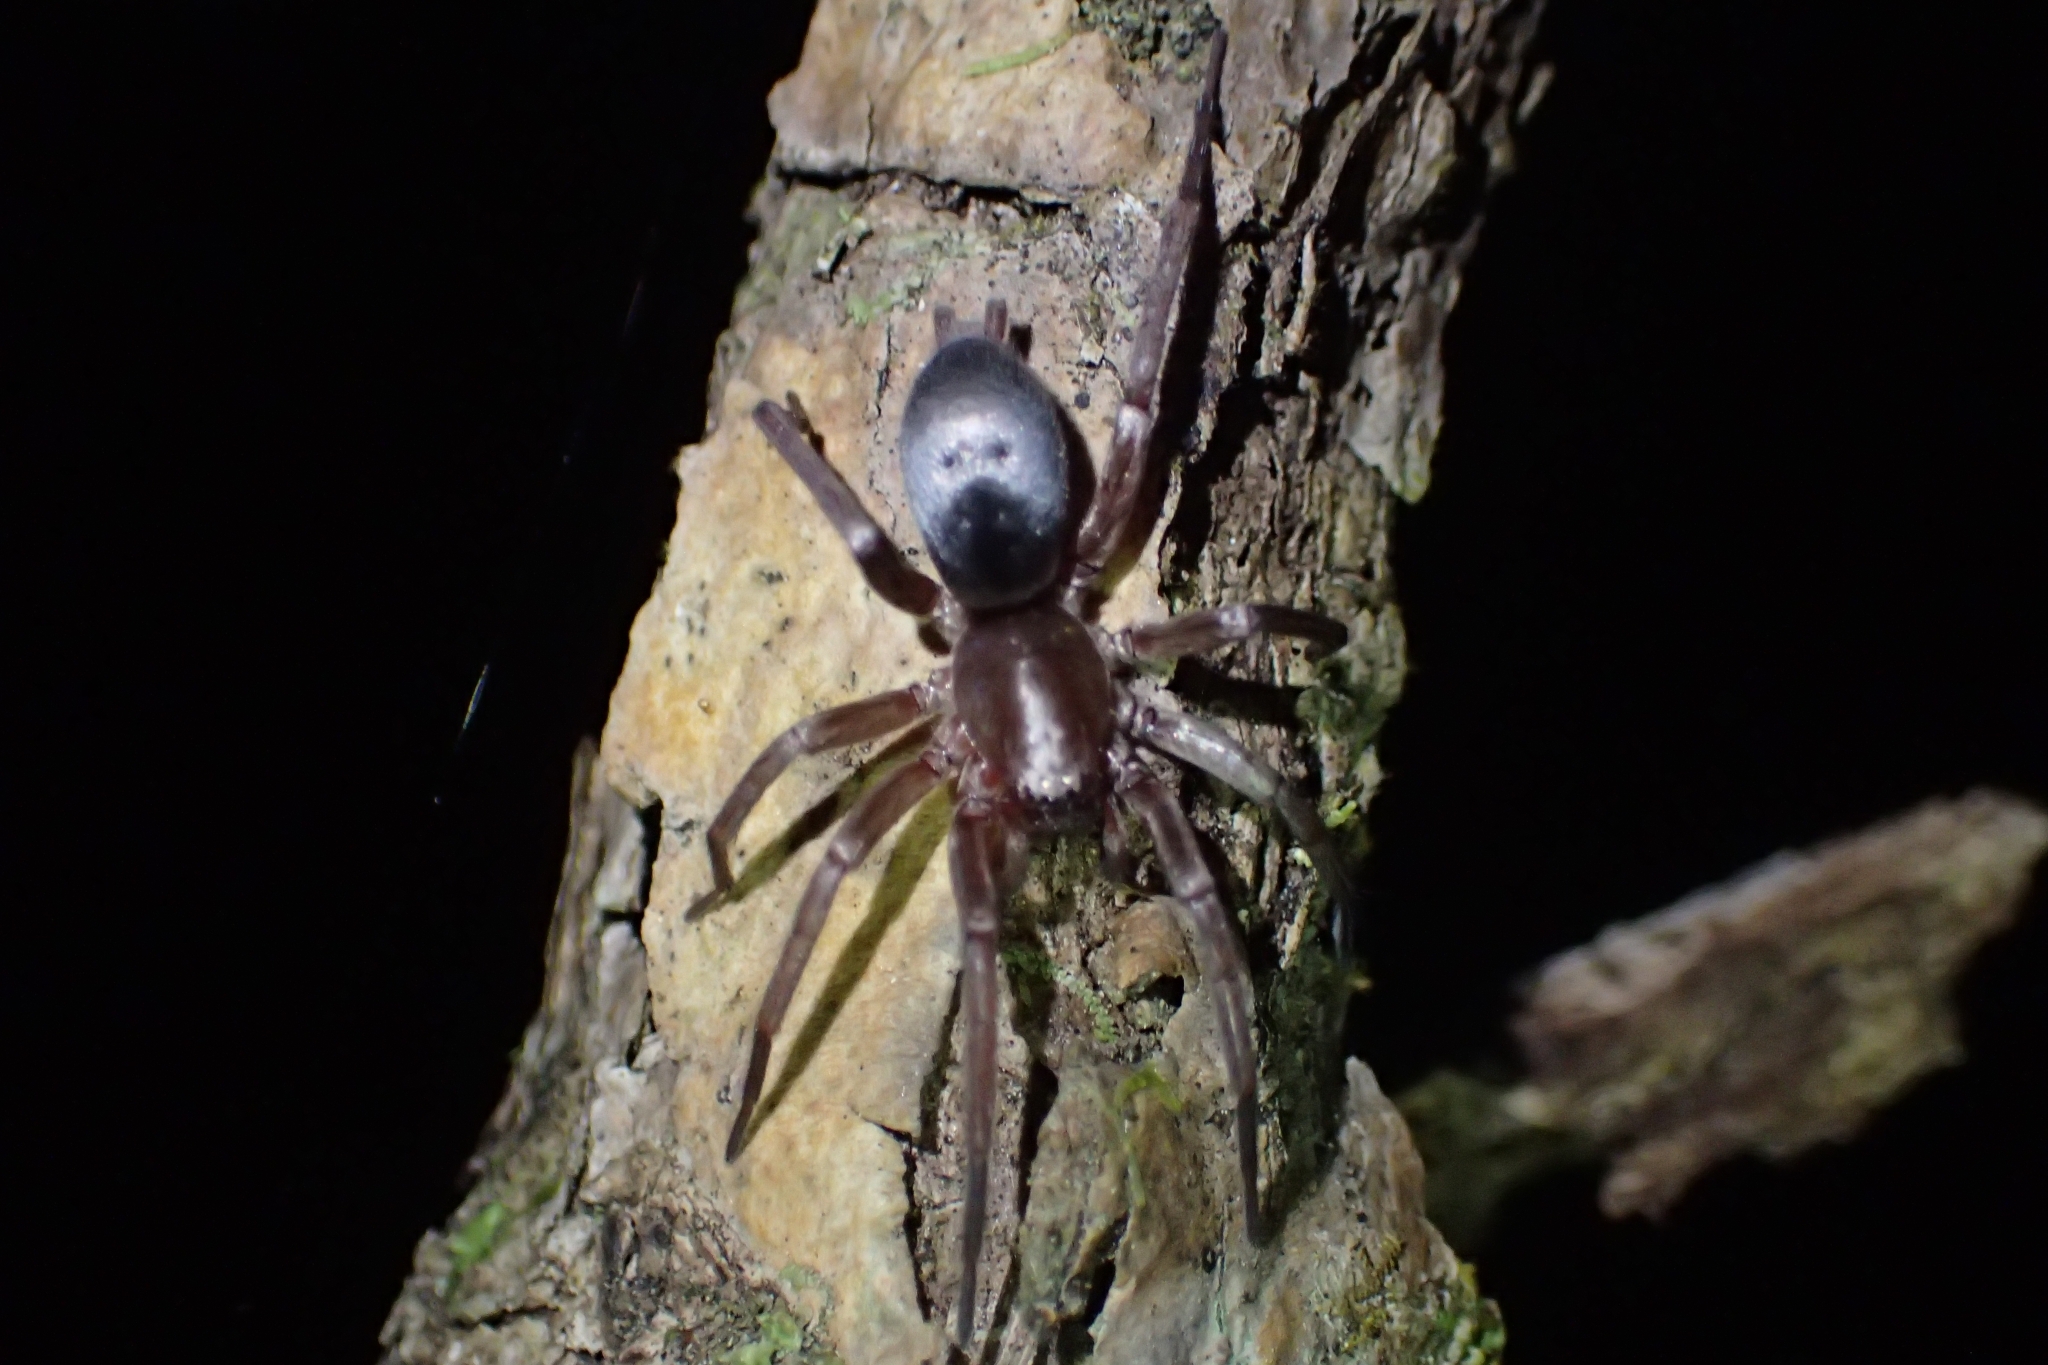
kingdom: Animalia
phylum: Arthropoda
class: Arachnida
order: Araneae
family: Gnaphosidae
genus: Hypodrassodes
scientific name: Hypodrassodes maoricus
